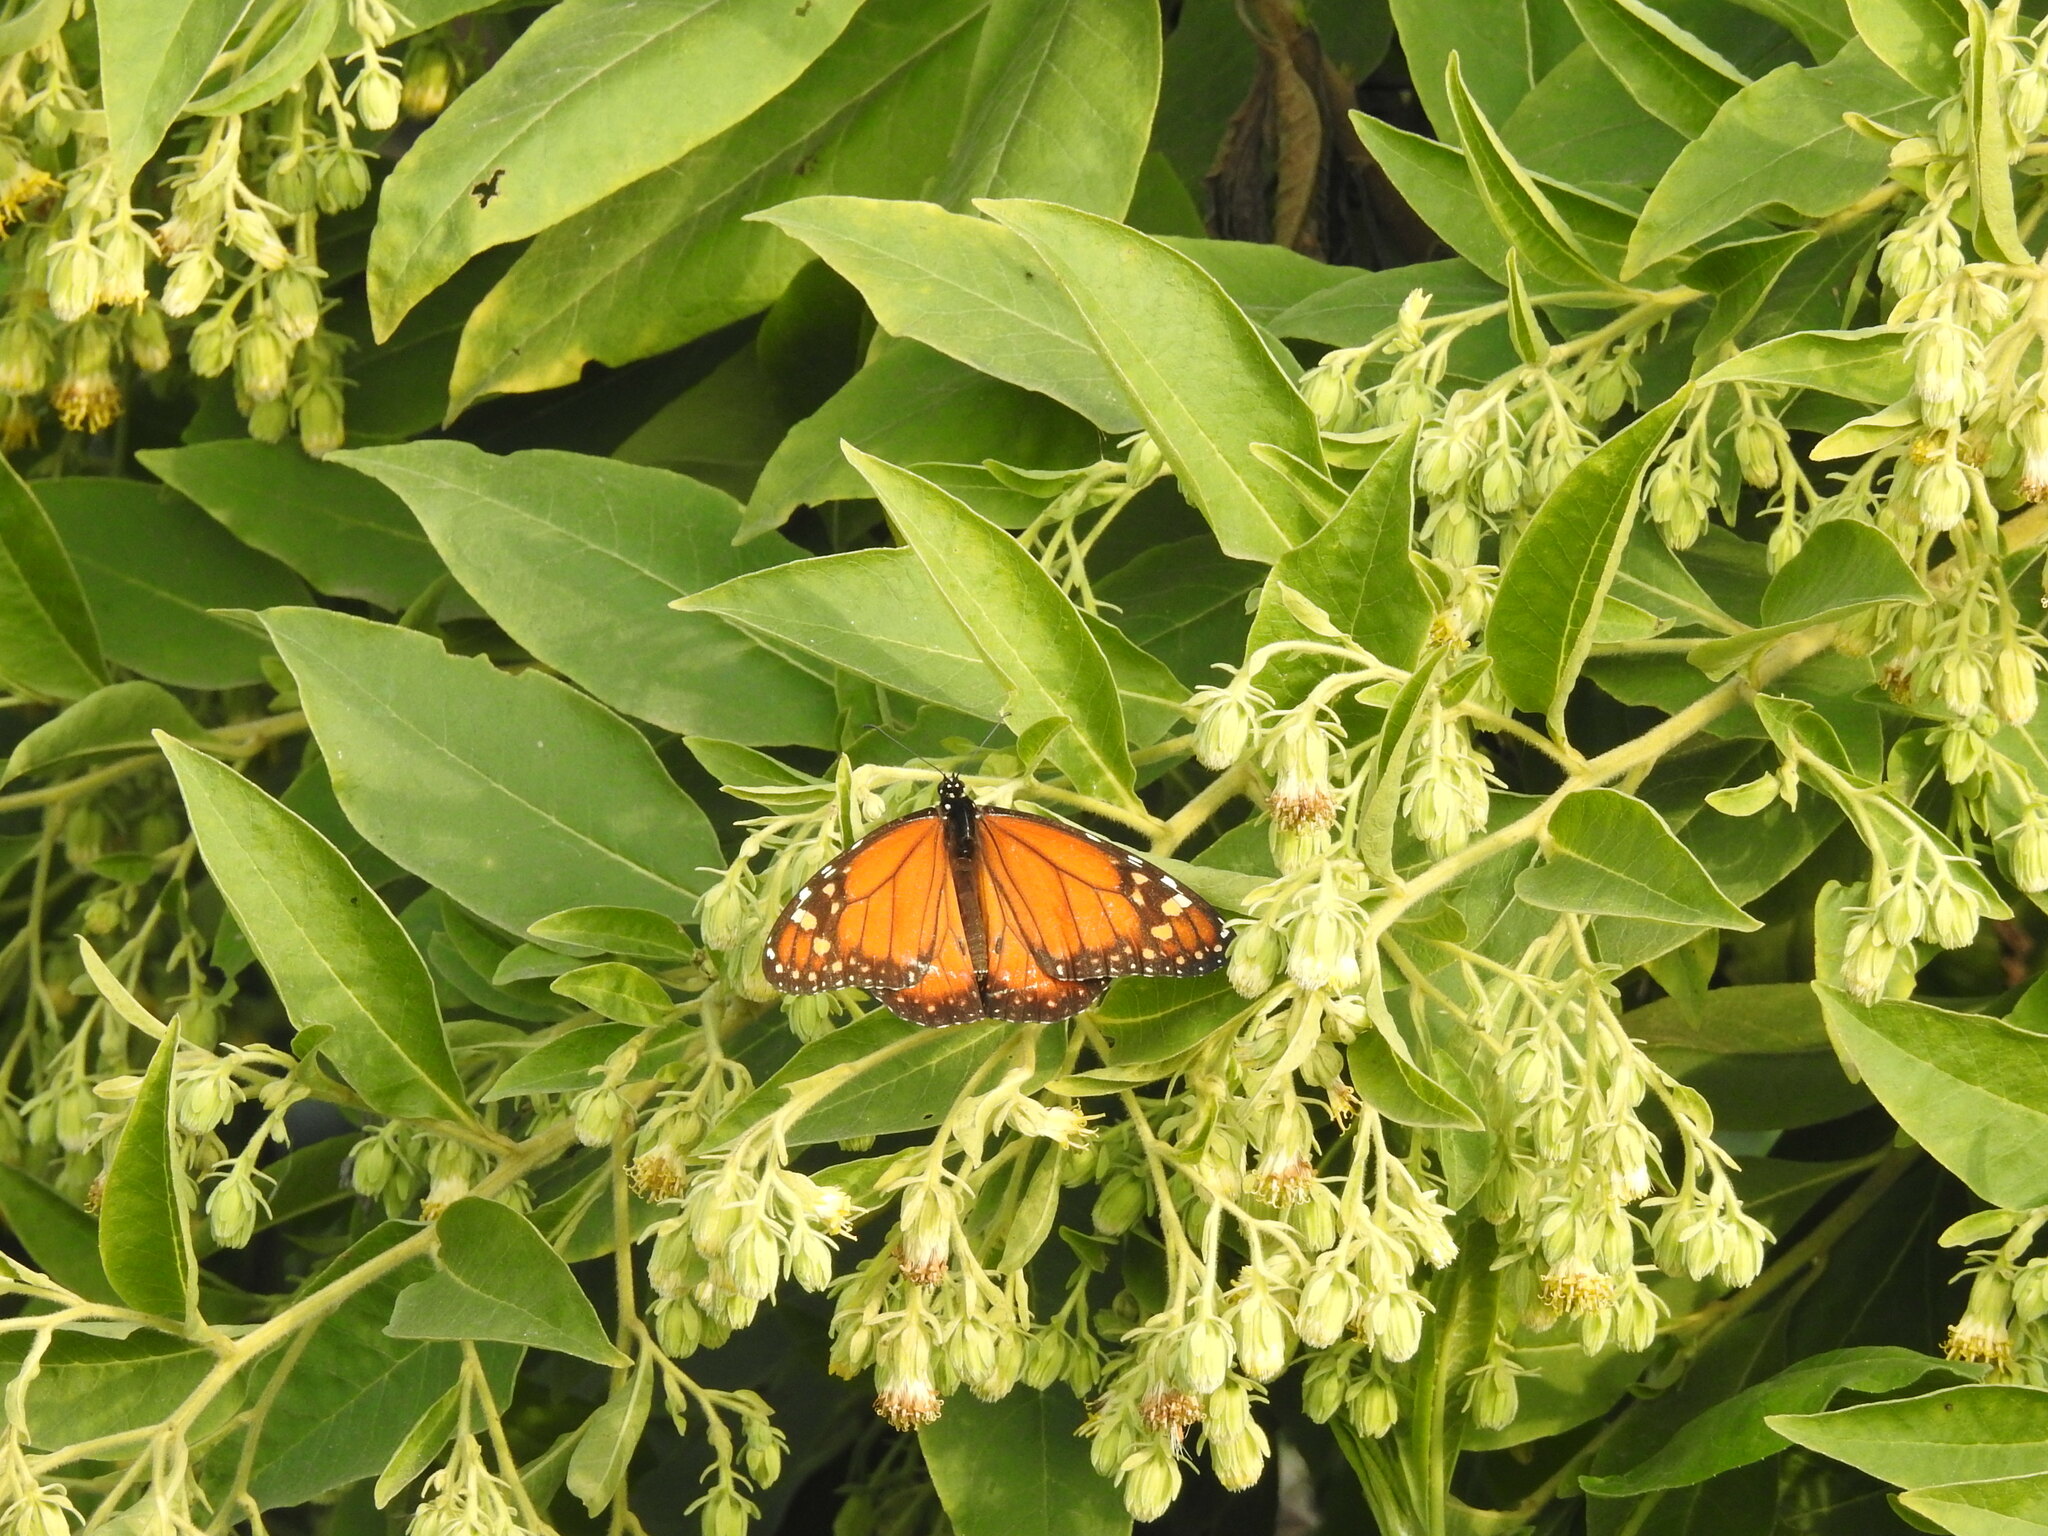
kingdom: Animalia
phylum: Arthropoda
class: Insecta
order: Lepidoptera
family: Nymphalidae
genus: Danaus
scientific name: Danaus erippus
